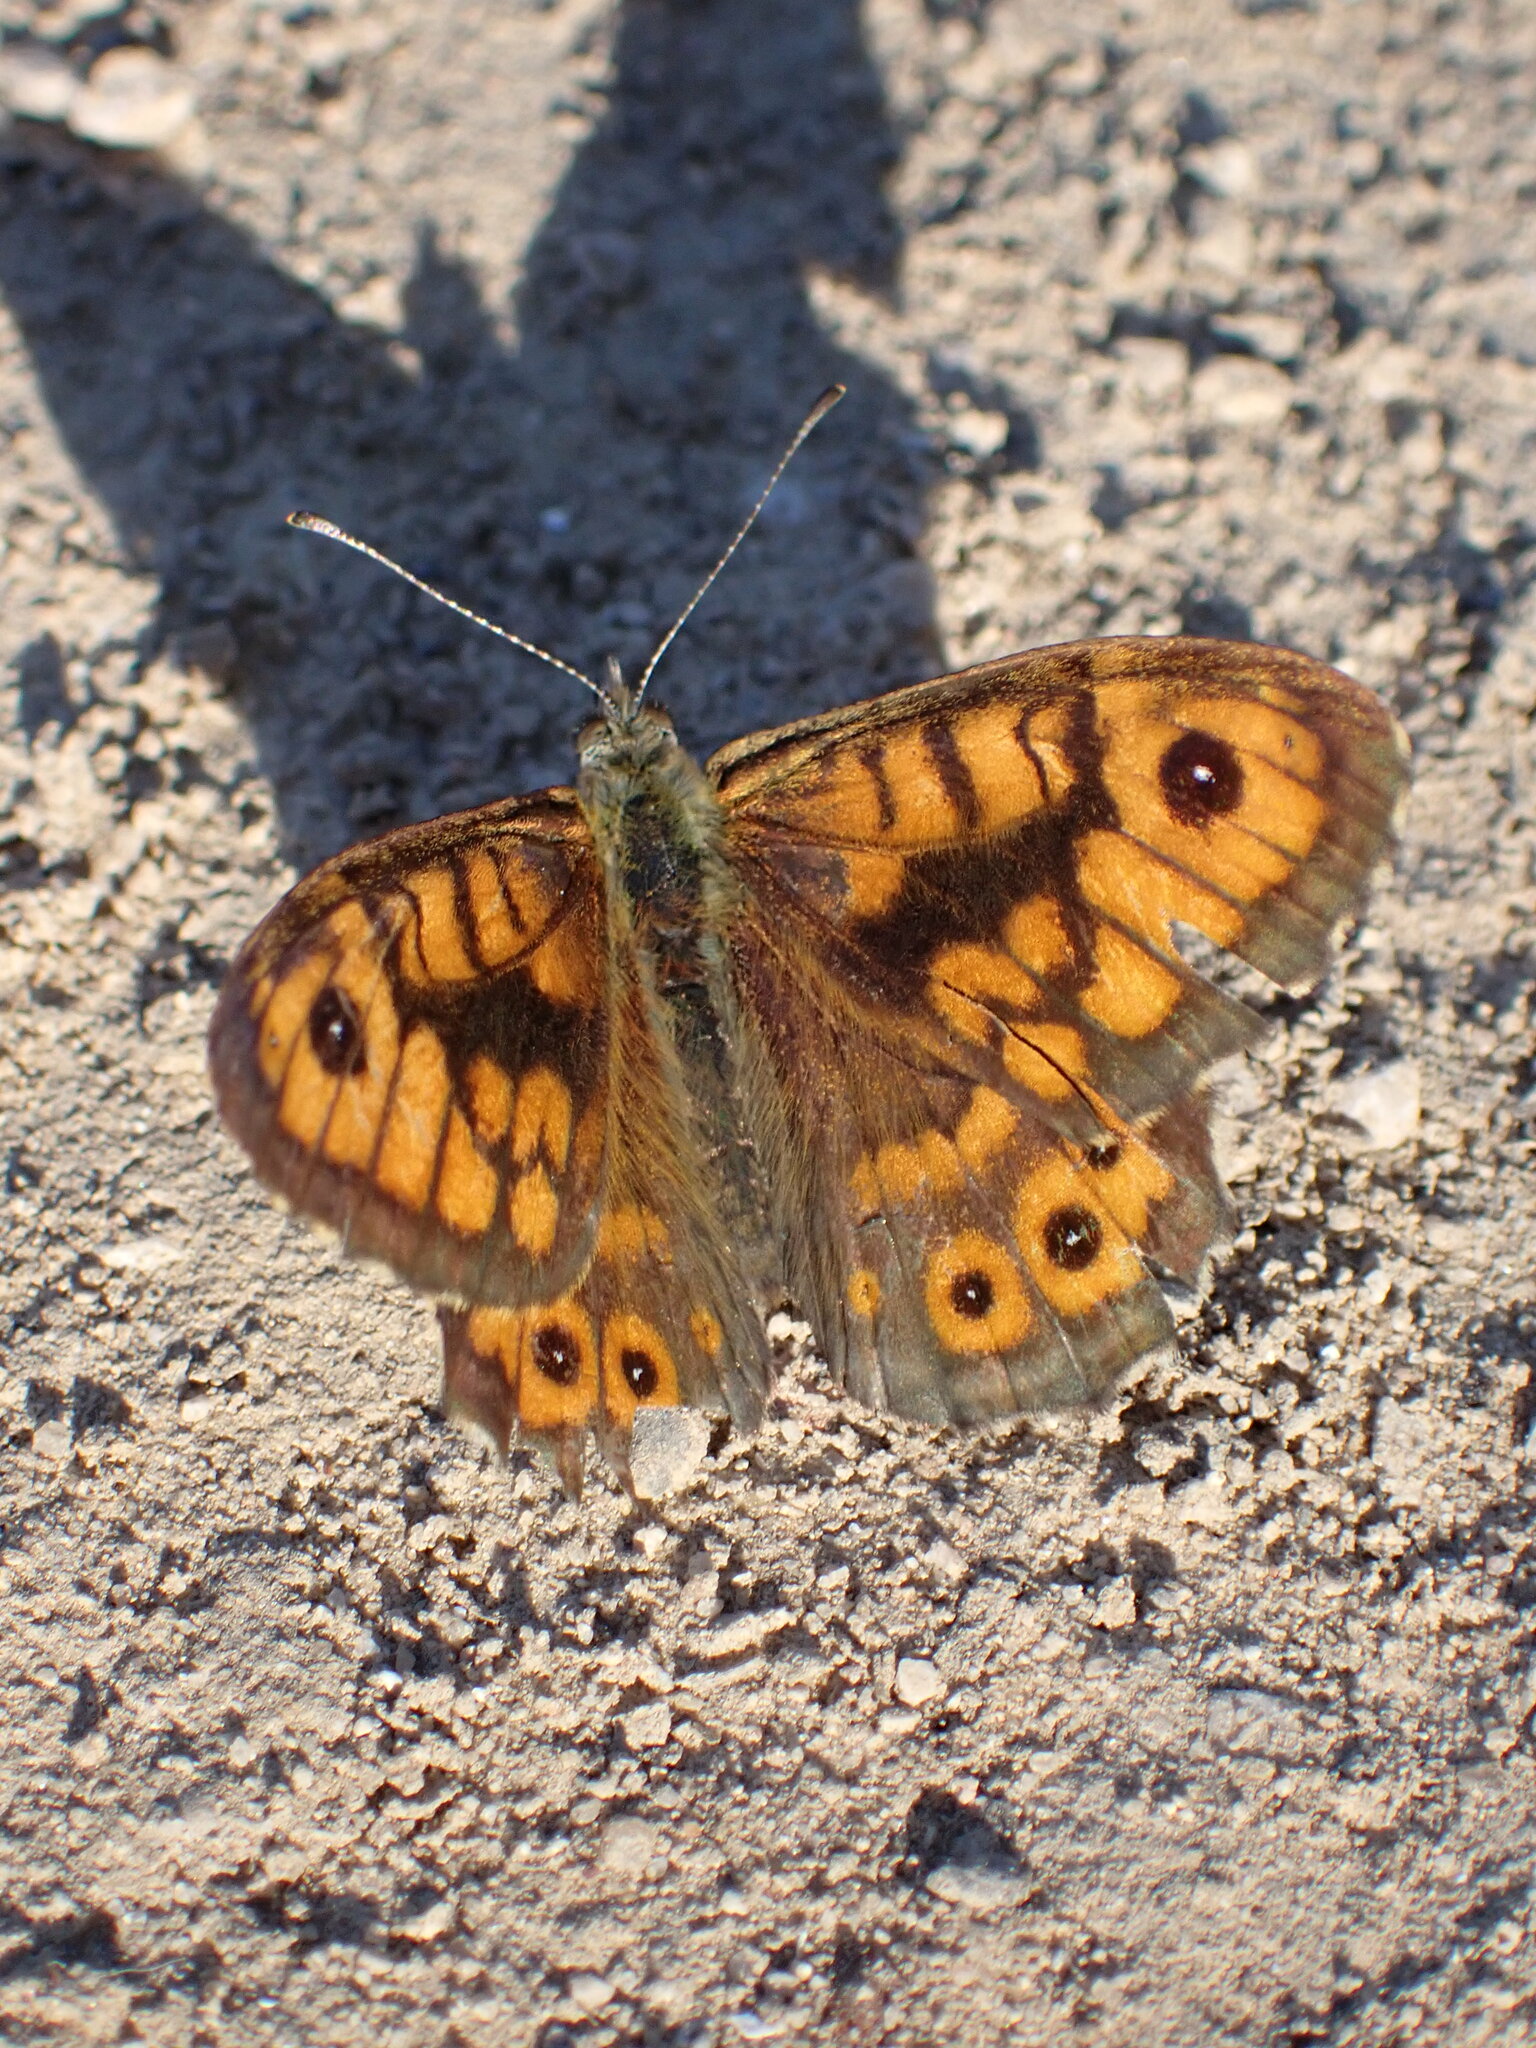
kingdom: Animalia
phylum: Arthropoda
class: Insecta
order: Lepidoptera
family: Nymphalidae
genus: Pararge
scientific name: Pararge Lasiommata megera
